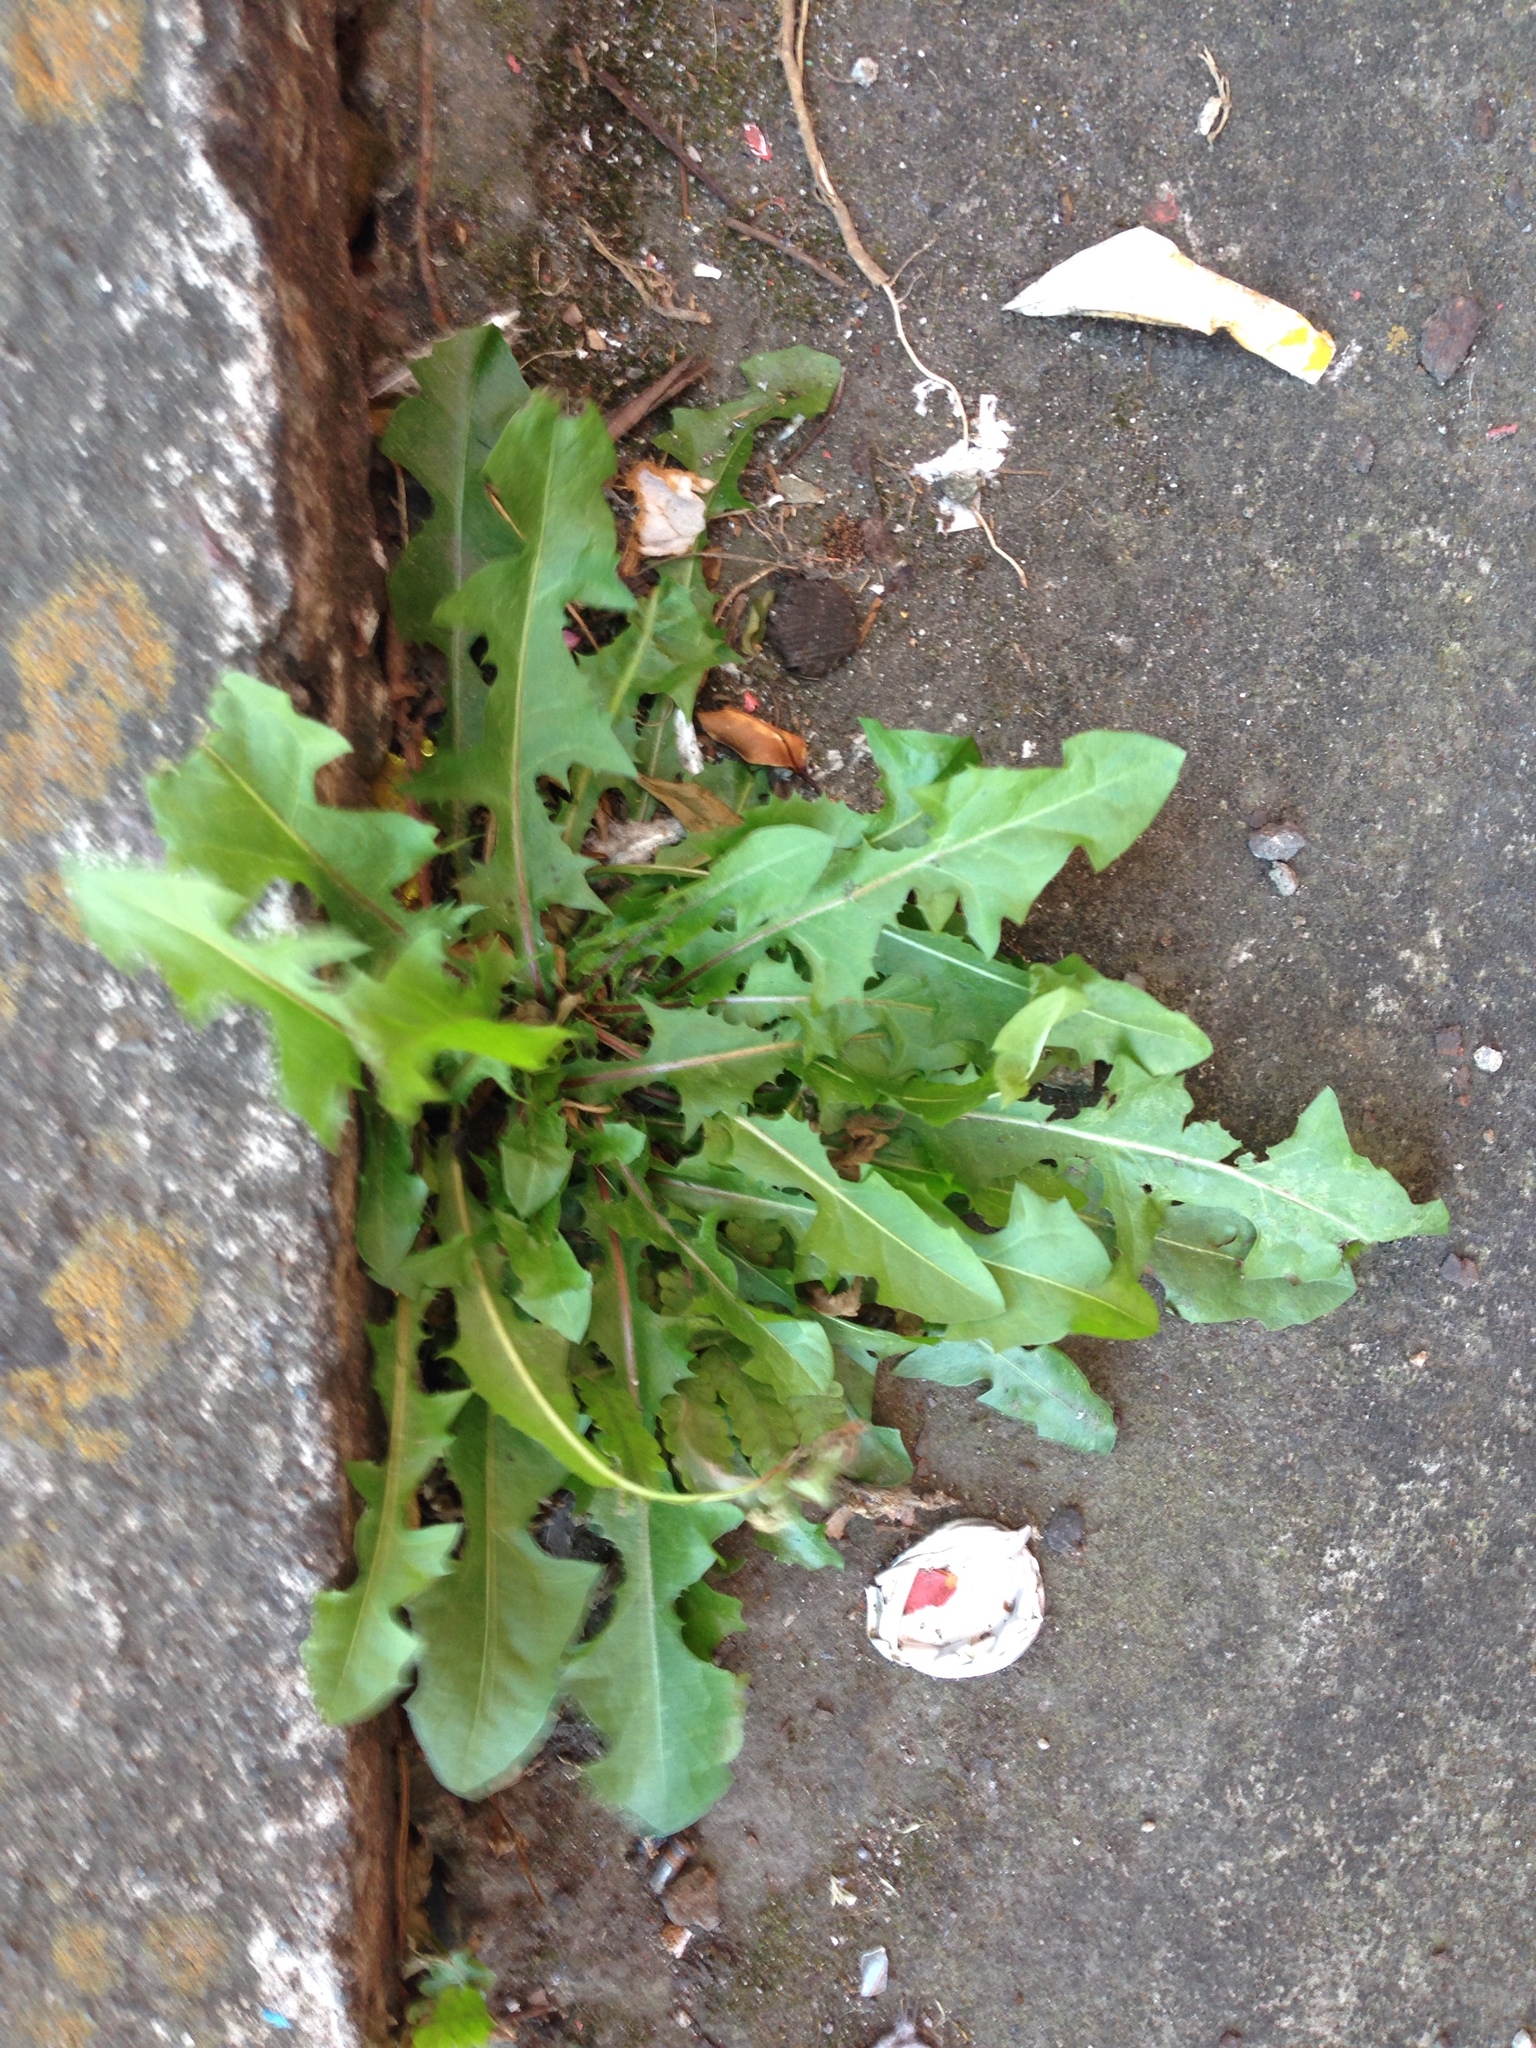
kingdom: Plantae
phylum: Tracheophyta
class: Magnoliopsida
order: Asterales
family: Asteraceae
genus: Taraxacum
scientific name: Taraxacum officinale
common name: Common dandelion
